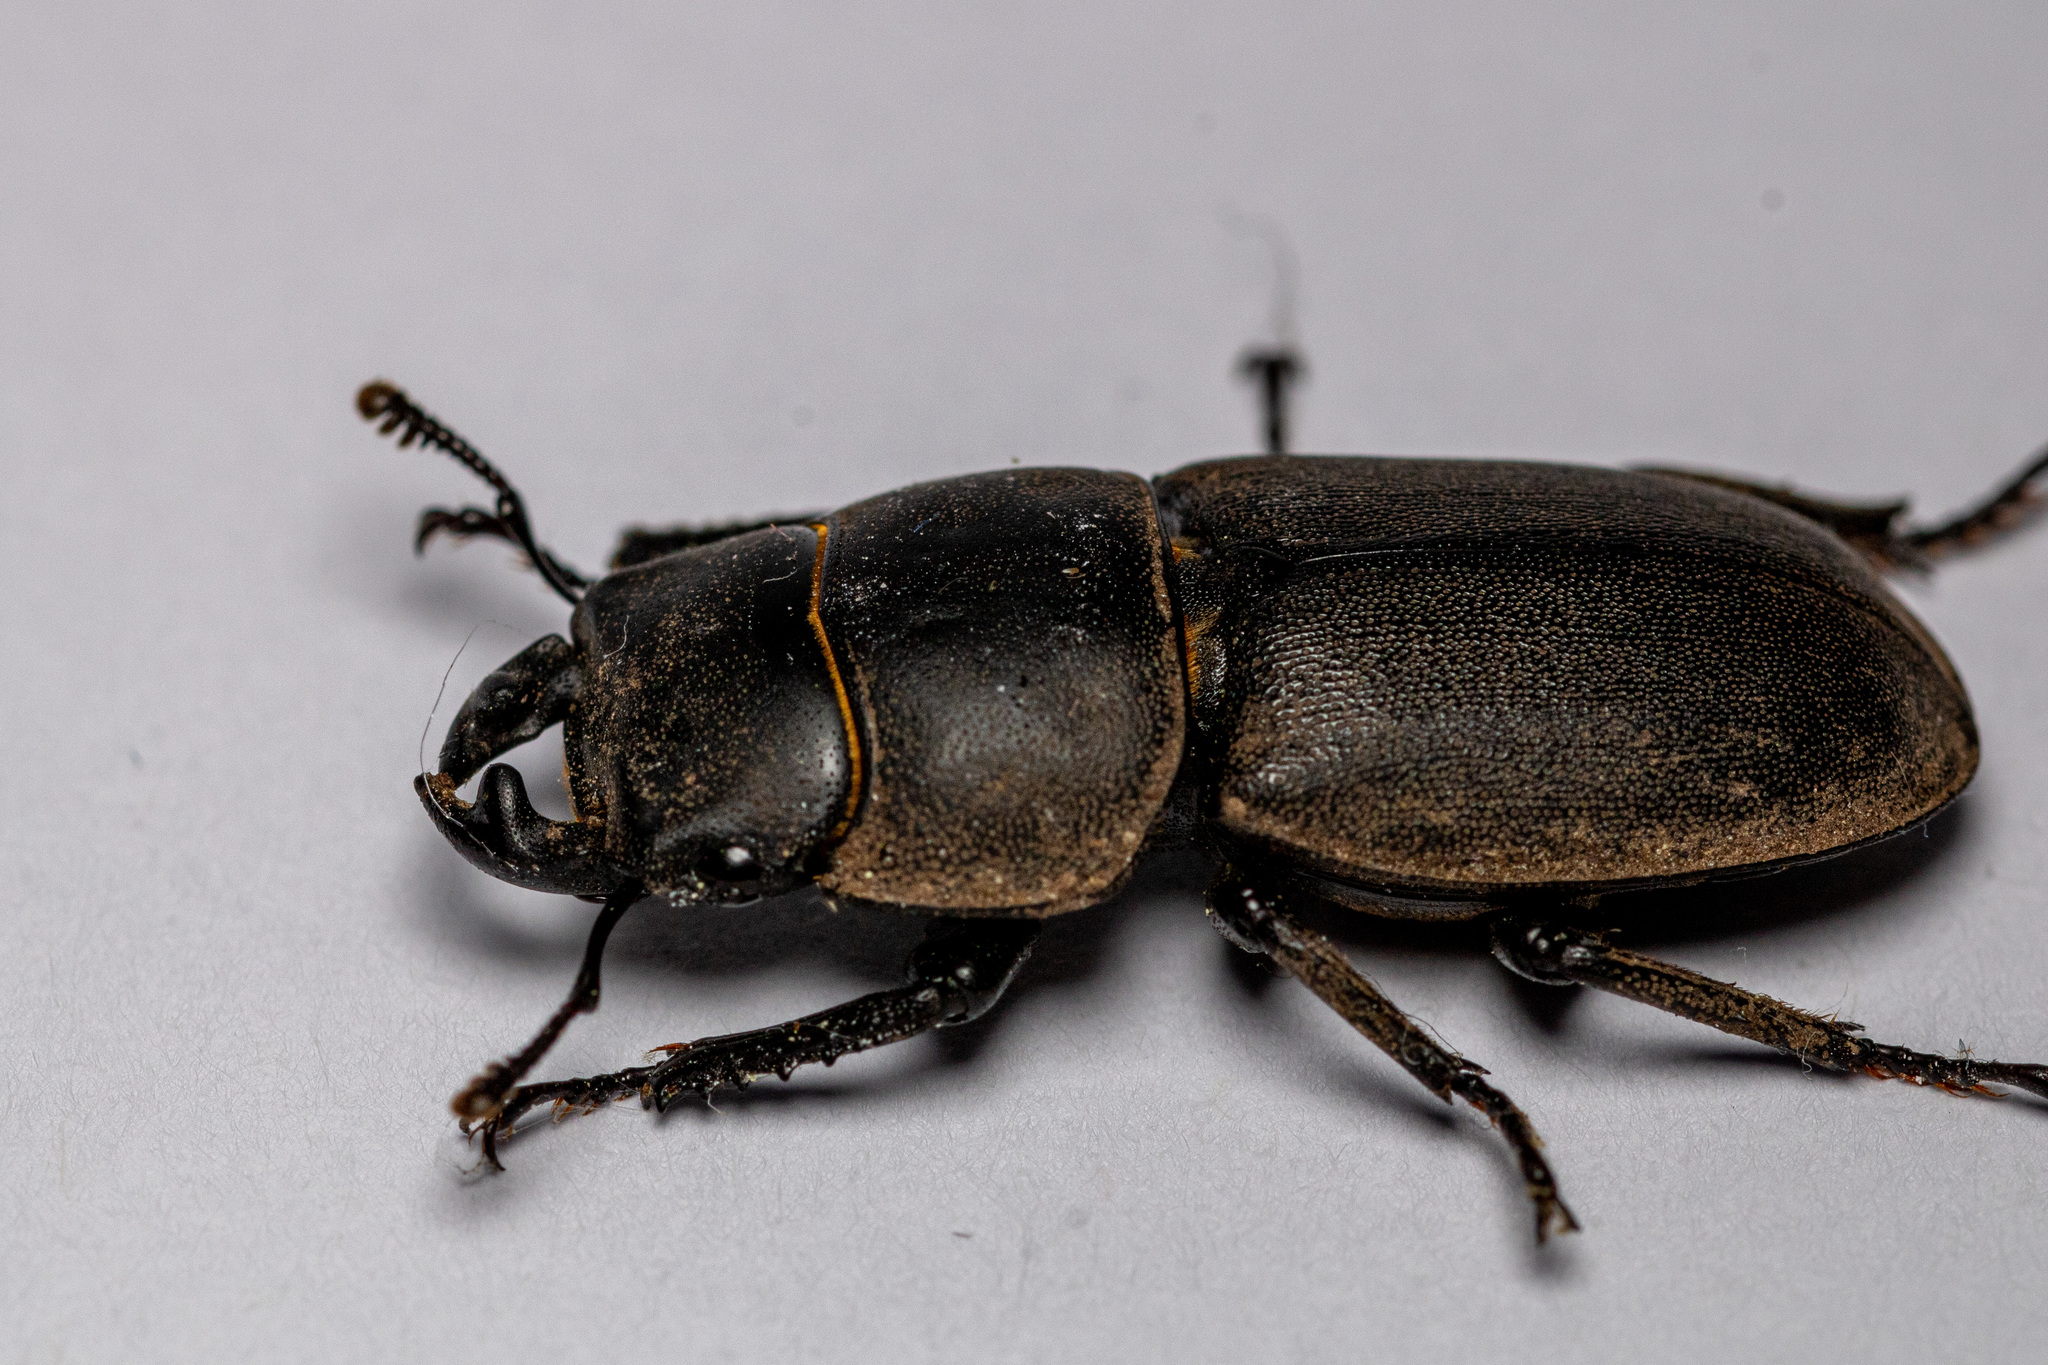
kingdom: Animalia
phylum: Arthropoda
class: Insecta
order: Coleoptera
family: Lucanidae
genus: Dorcus
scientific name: Dorcus parallelipipedus
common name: Lesser stag beetle
